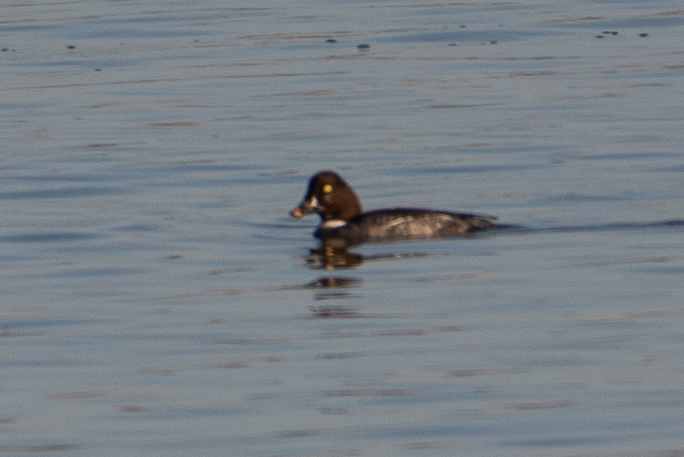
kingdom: Animalia
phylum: Chordata
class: Aves
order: Anseriformes
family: Anatidae
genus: Bucephala
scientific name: Bucephala clangula
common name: Common goldeneye
